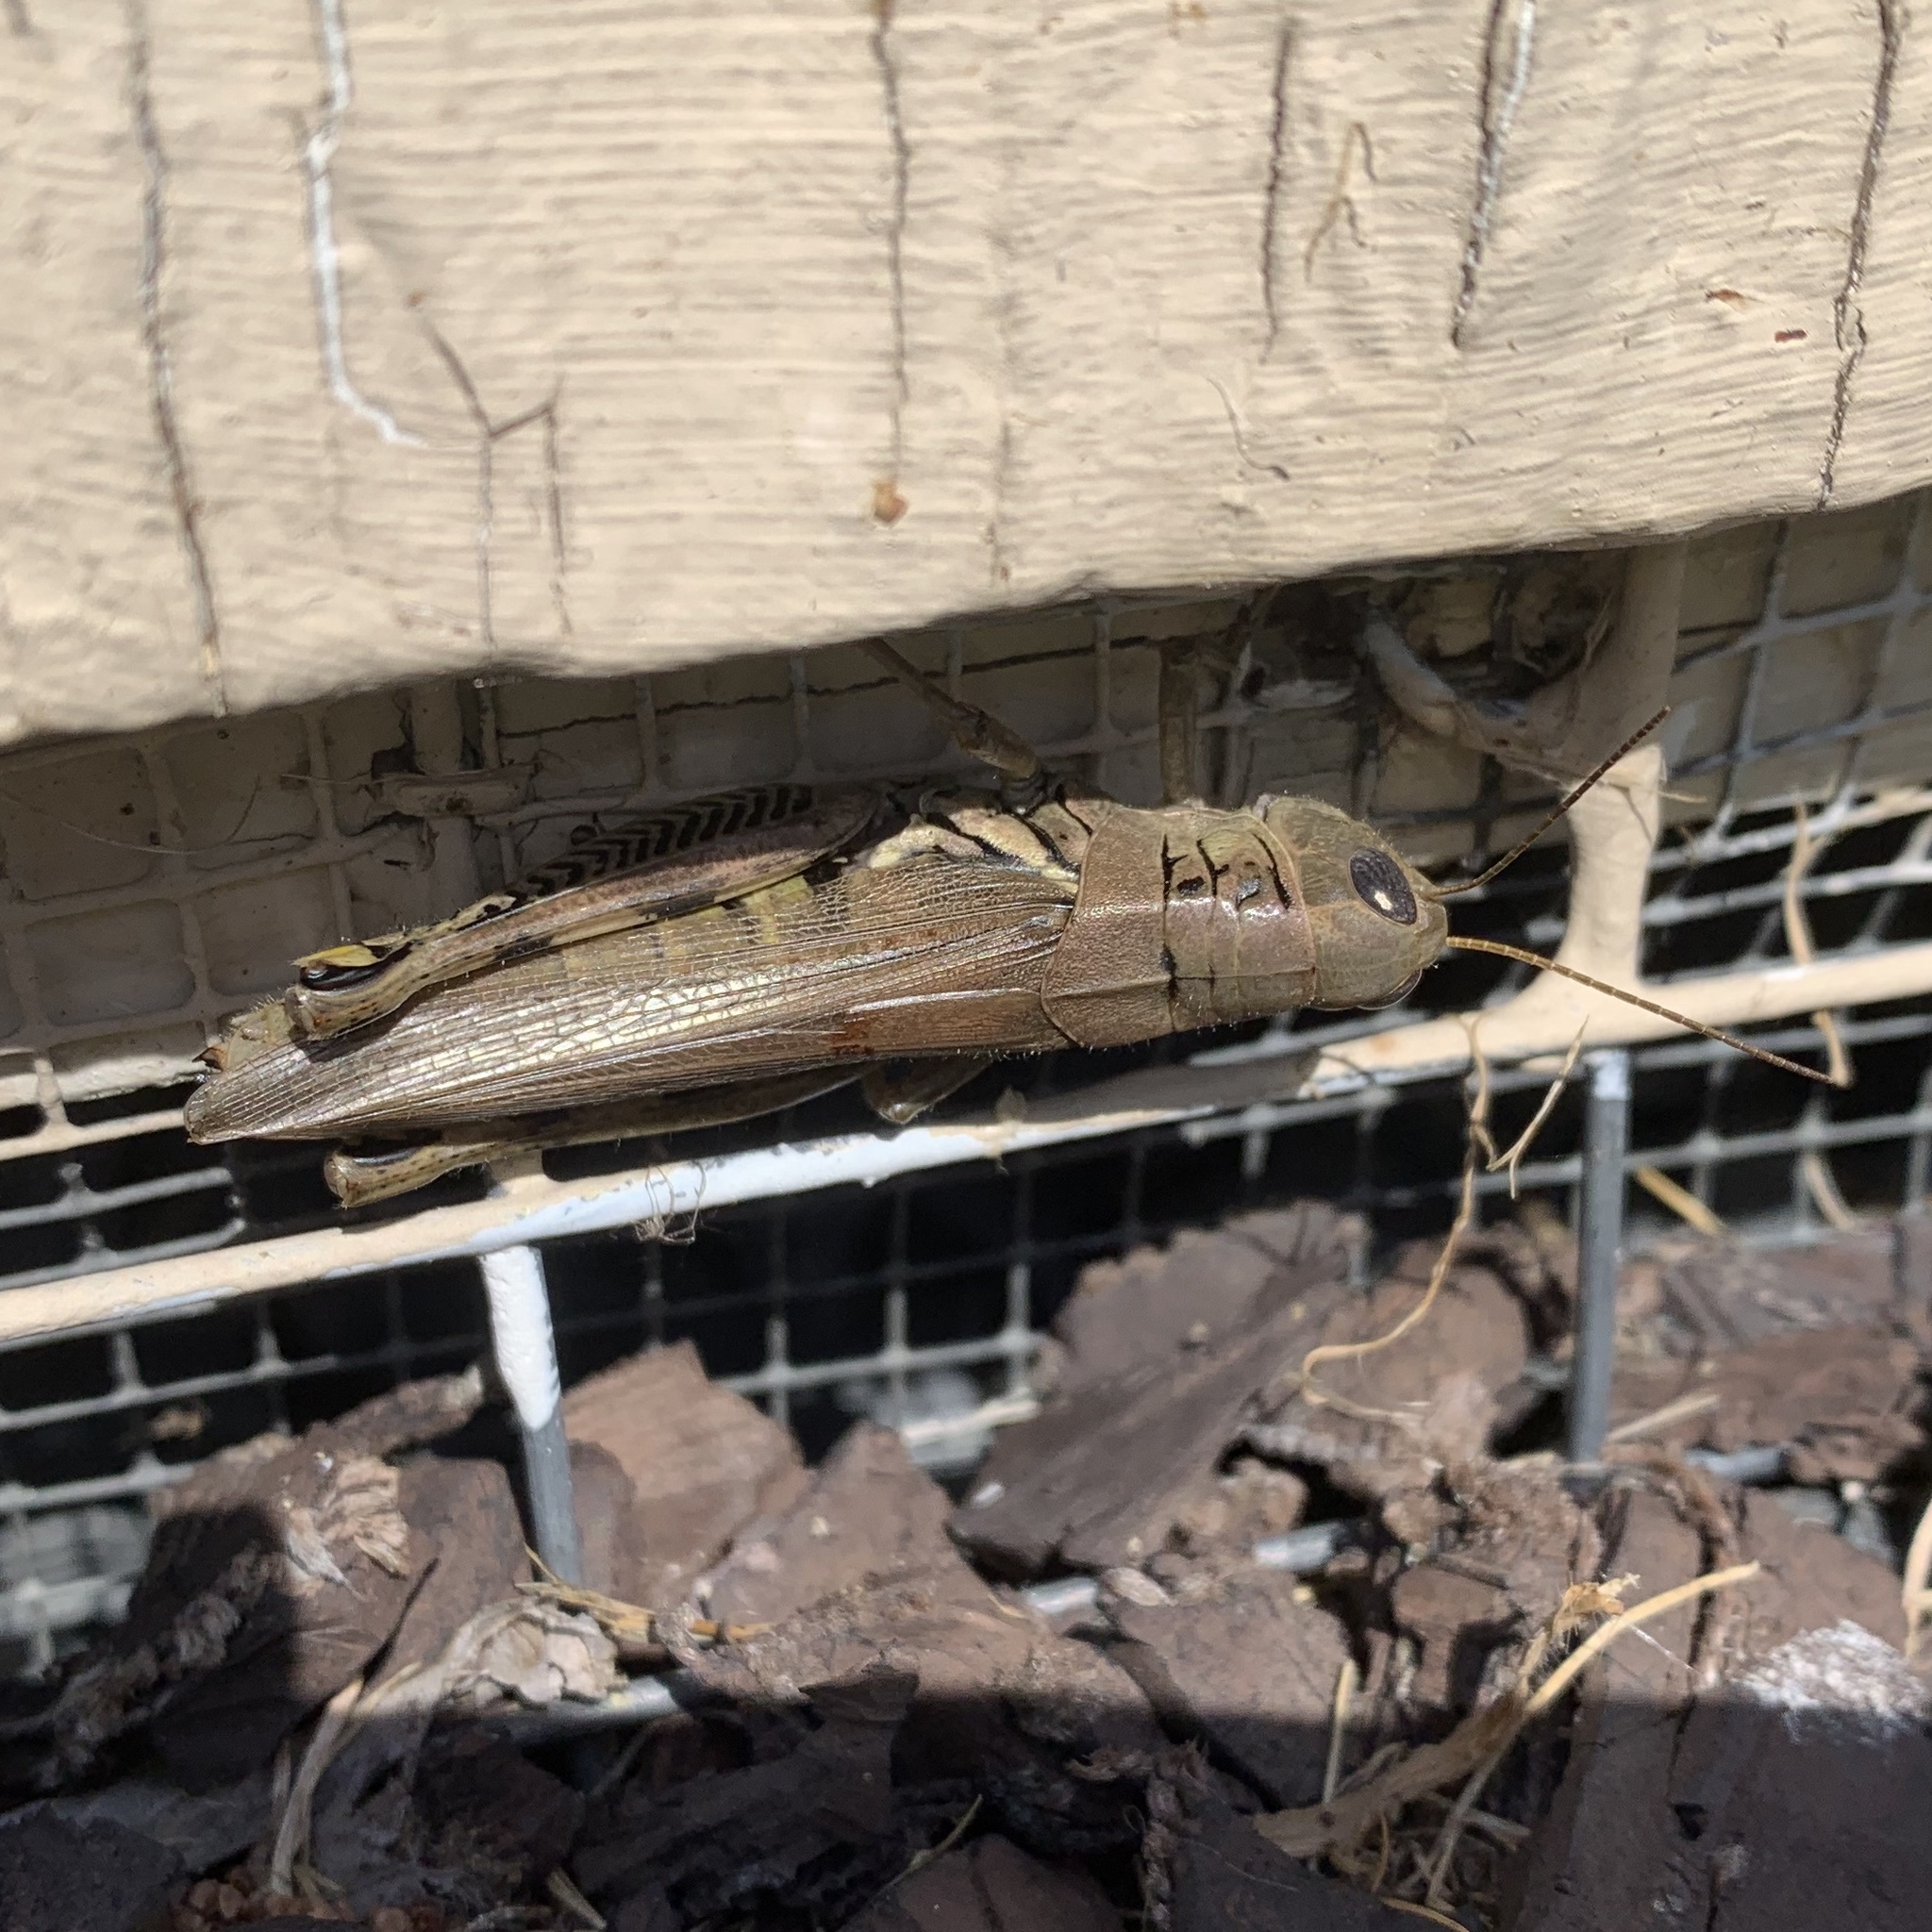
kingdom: Animalia
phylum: Arthropoda
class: Insecta
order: Orthoptera
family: Acrididae
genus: Melanoplus
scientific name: Melanoplus differentialis
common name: Differential grasshopper
